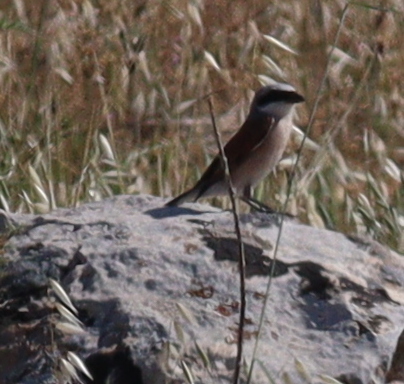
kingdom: Animalia
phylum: Chordata
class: Aves
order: Passeriformes
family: Laniidae
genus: Lanius
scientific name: Lanius collurio
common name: Red-backed shrike
